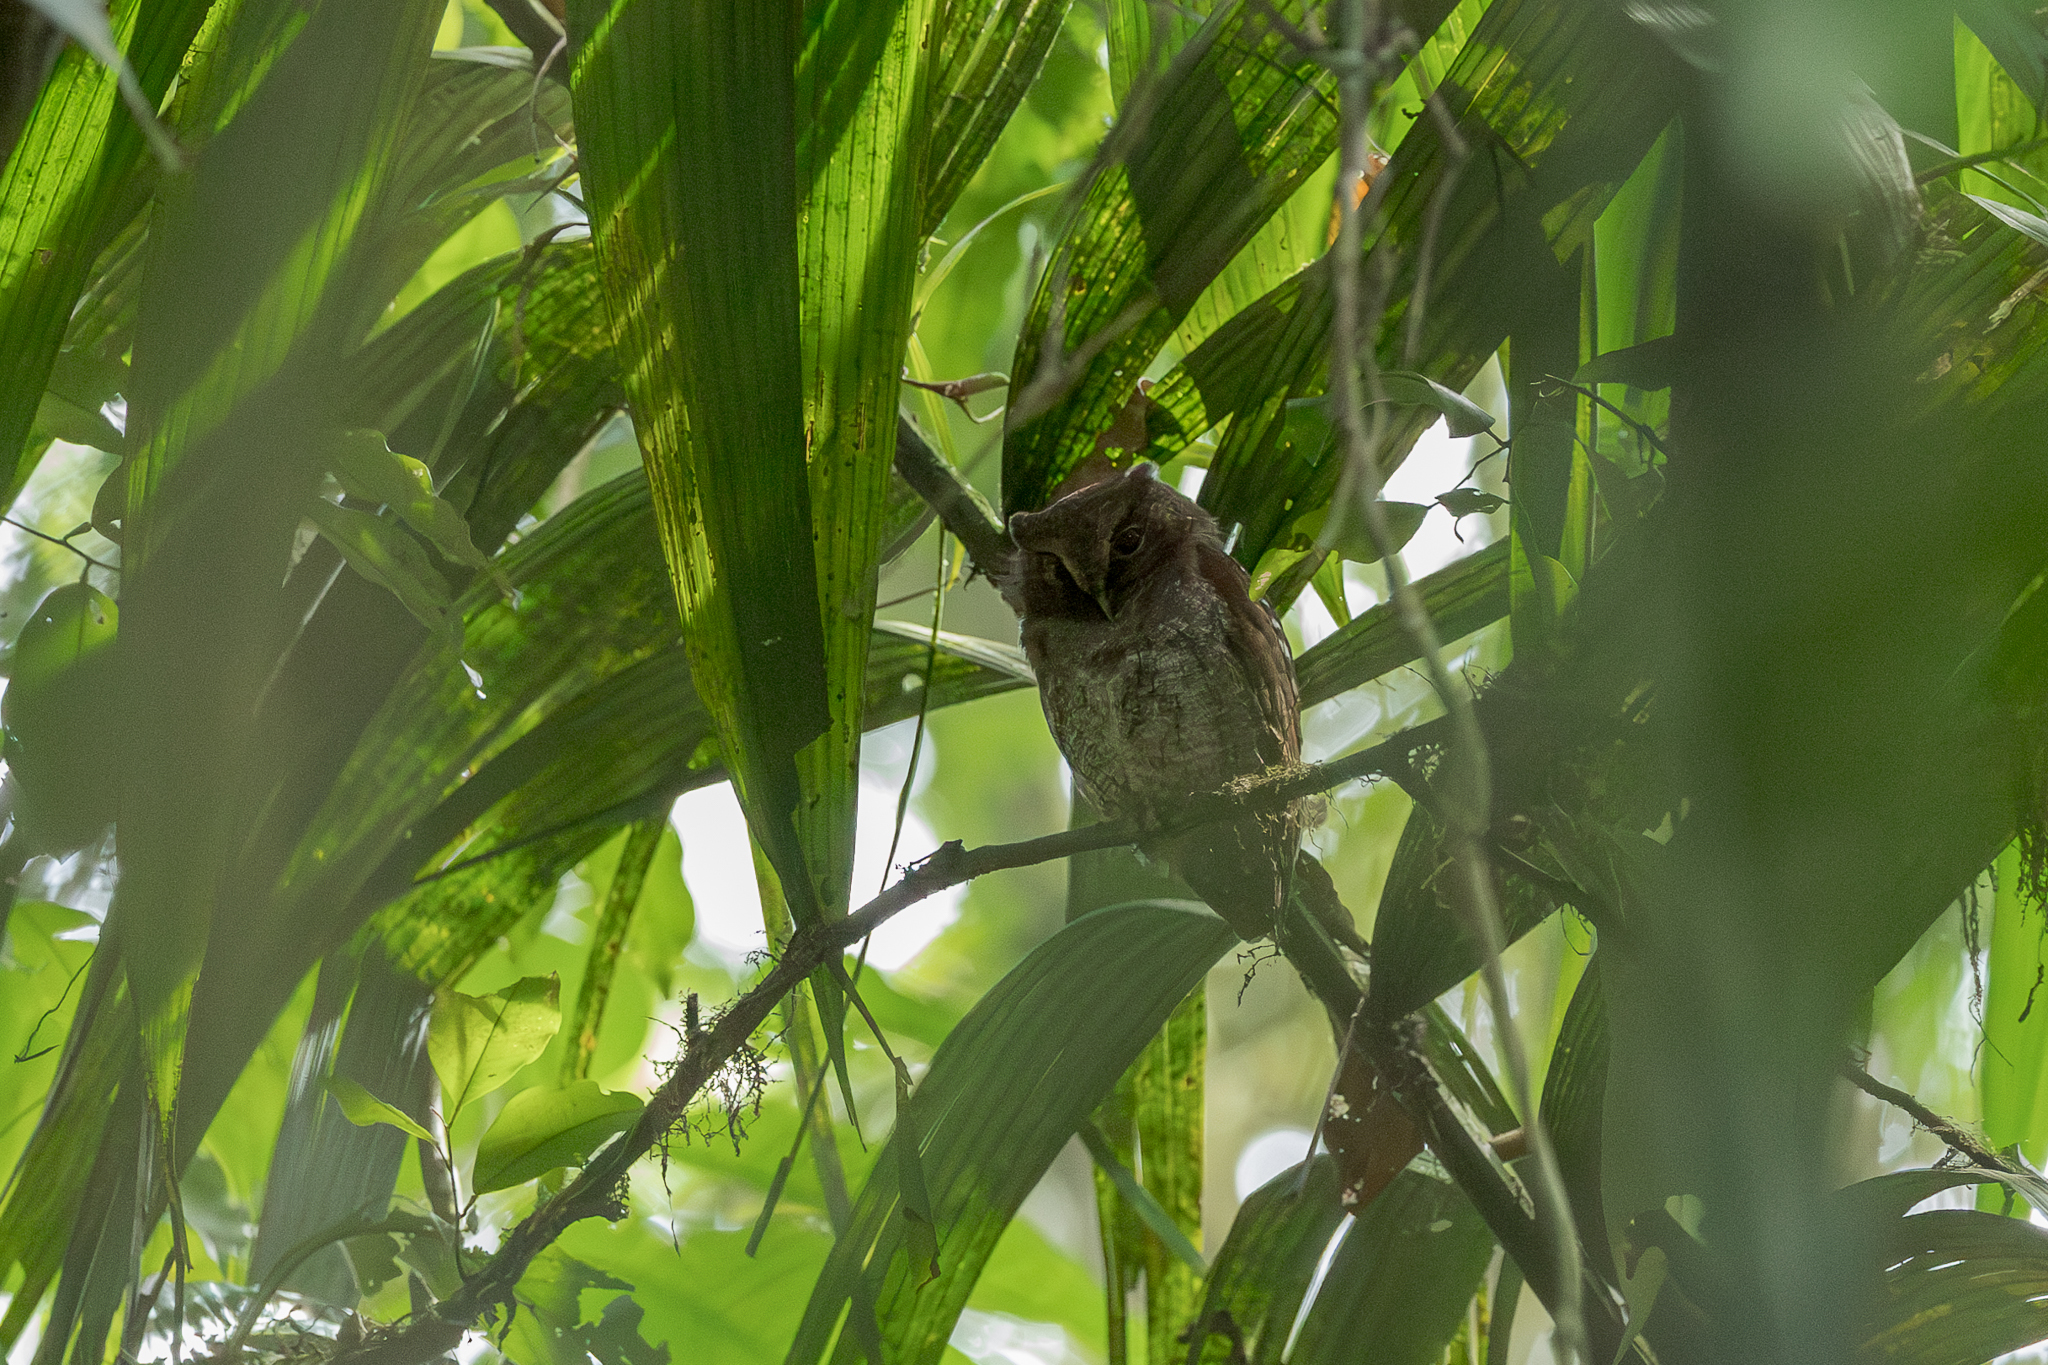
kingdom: Animalia
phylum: Chordata
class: Aves
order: Strigiformes
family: Strigidae
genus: Megascops
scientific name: Megascops guatemalae
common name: Vermiculated screech-owl
